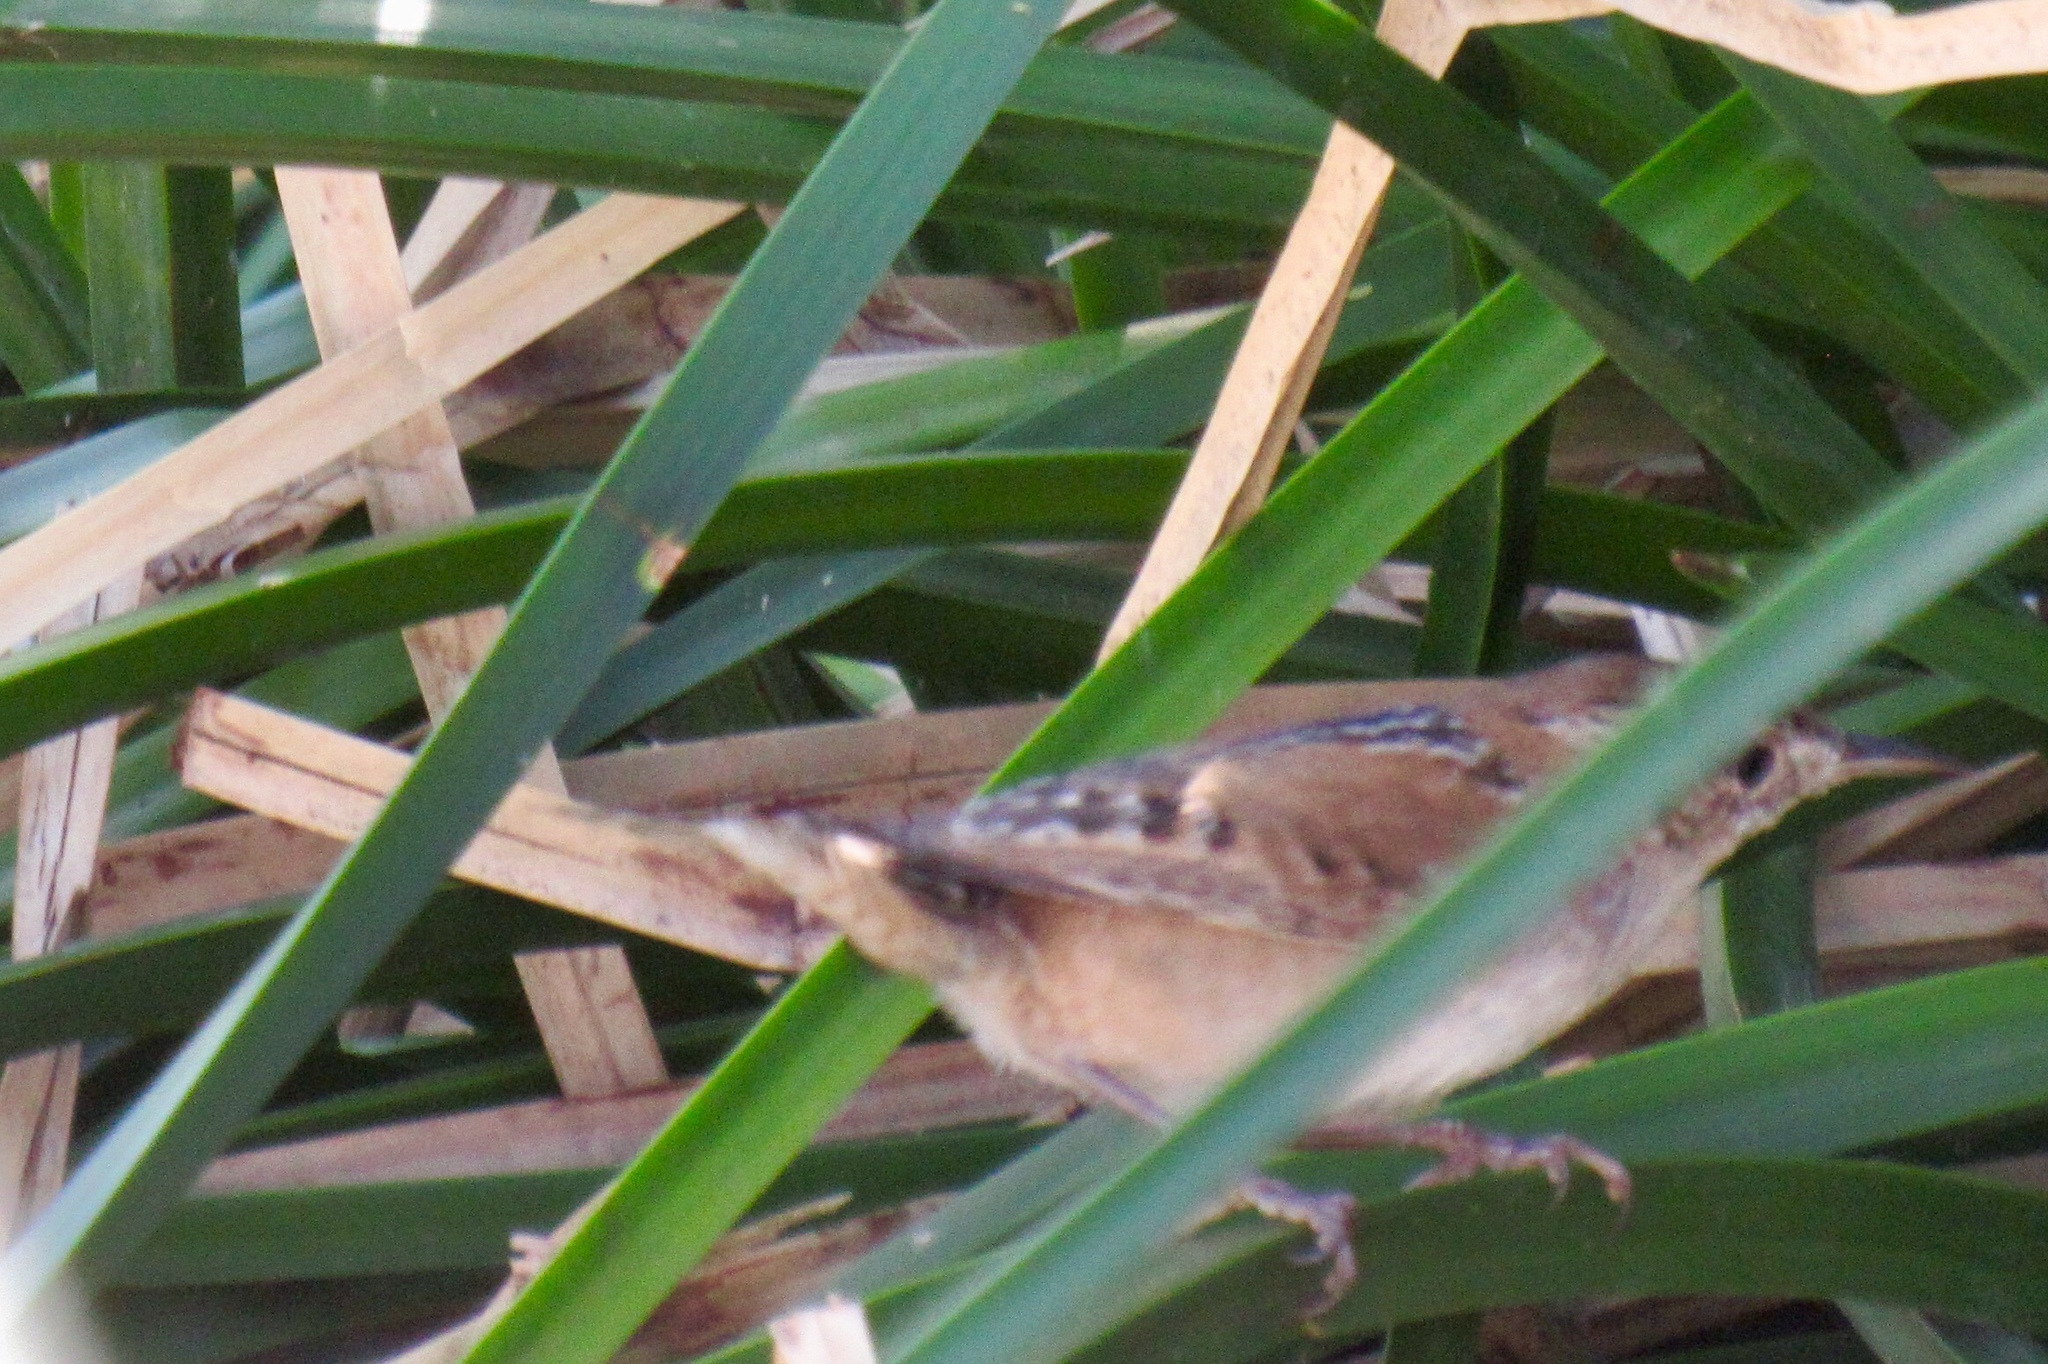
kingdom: Animalia
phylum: Chordata
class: Aves
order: Passeriformes
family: Troglodytidae
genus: Cistothorus
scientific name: Cistothorus palustris
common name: Marsh wren
